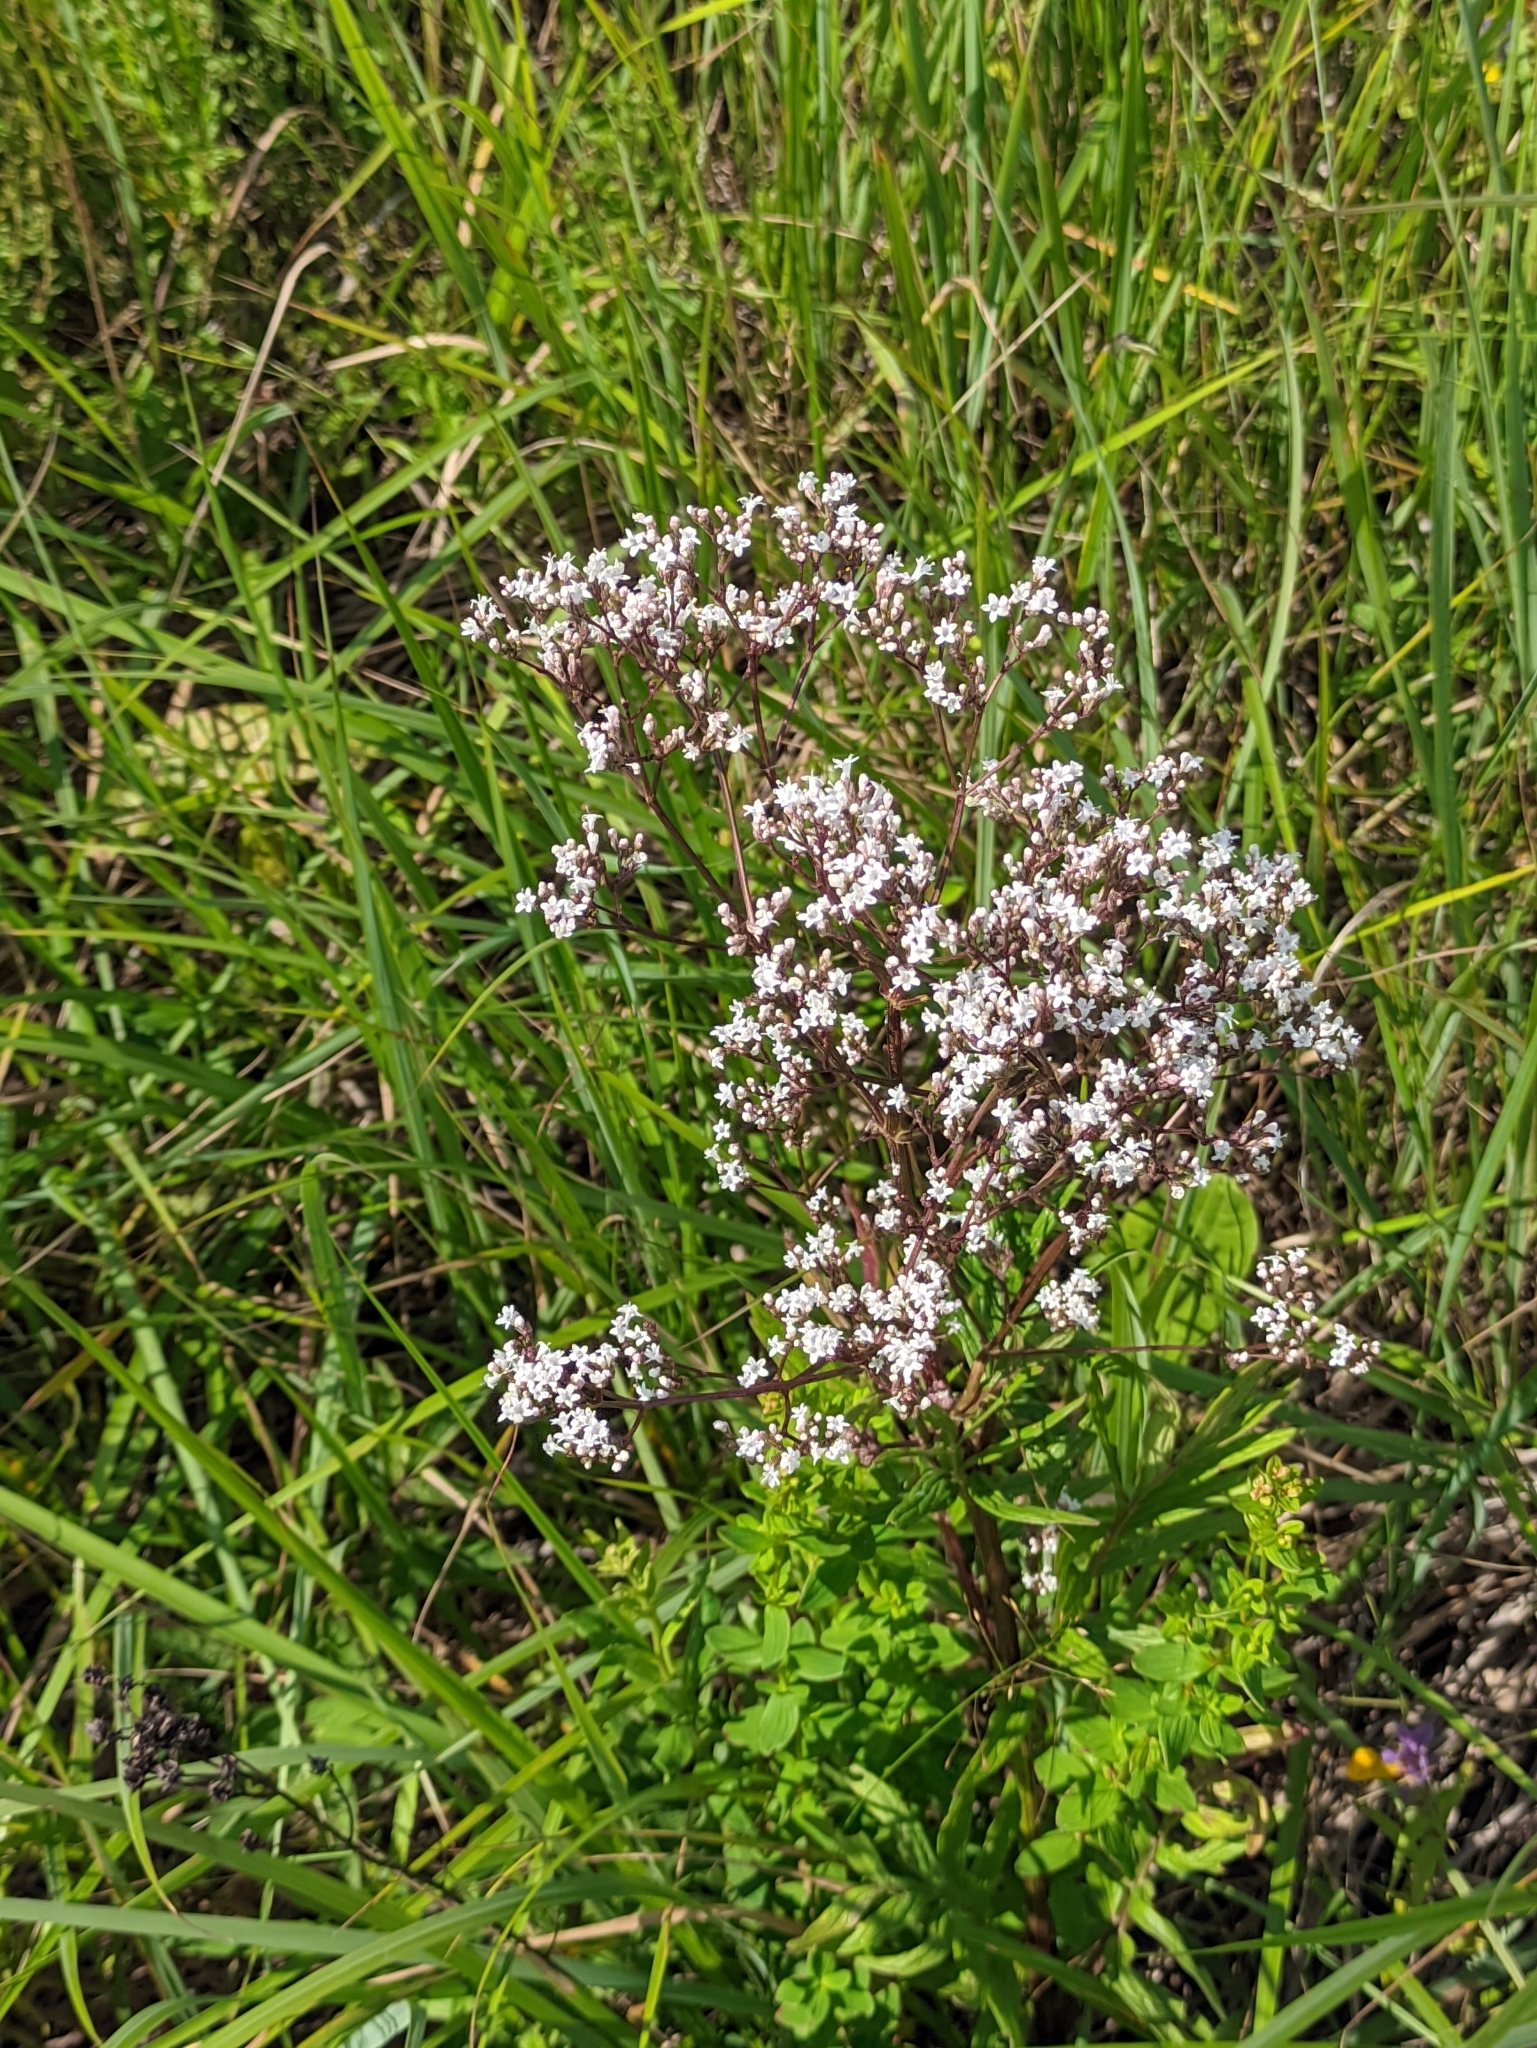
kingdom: Plantae
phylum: Tracheophyta
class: Magnoliopsida
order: Dipsacales
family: Caprifoliaceae
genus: Valeriana
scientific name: Valeriana officinalis
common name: Common valerian
